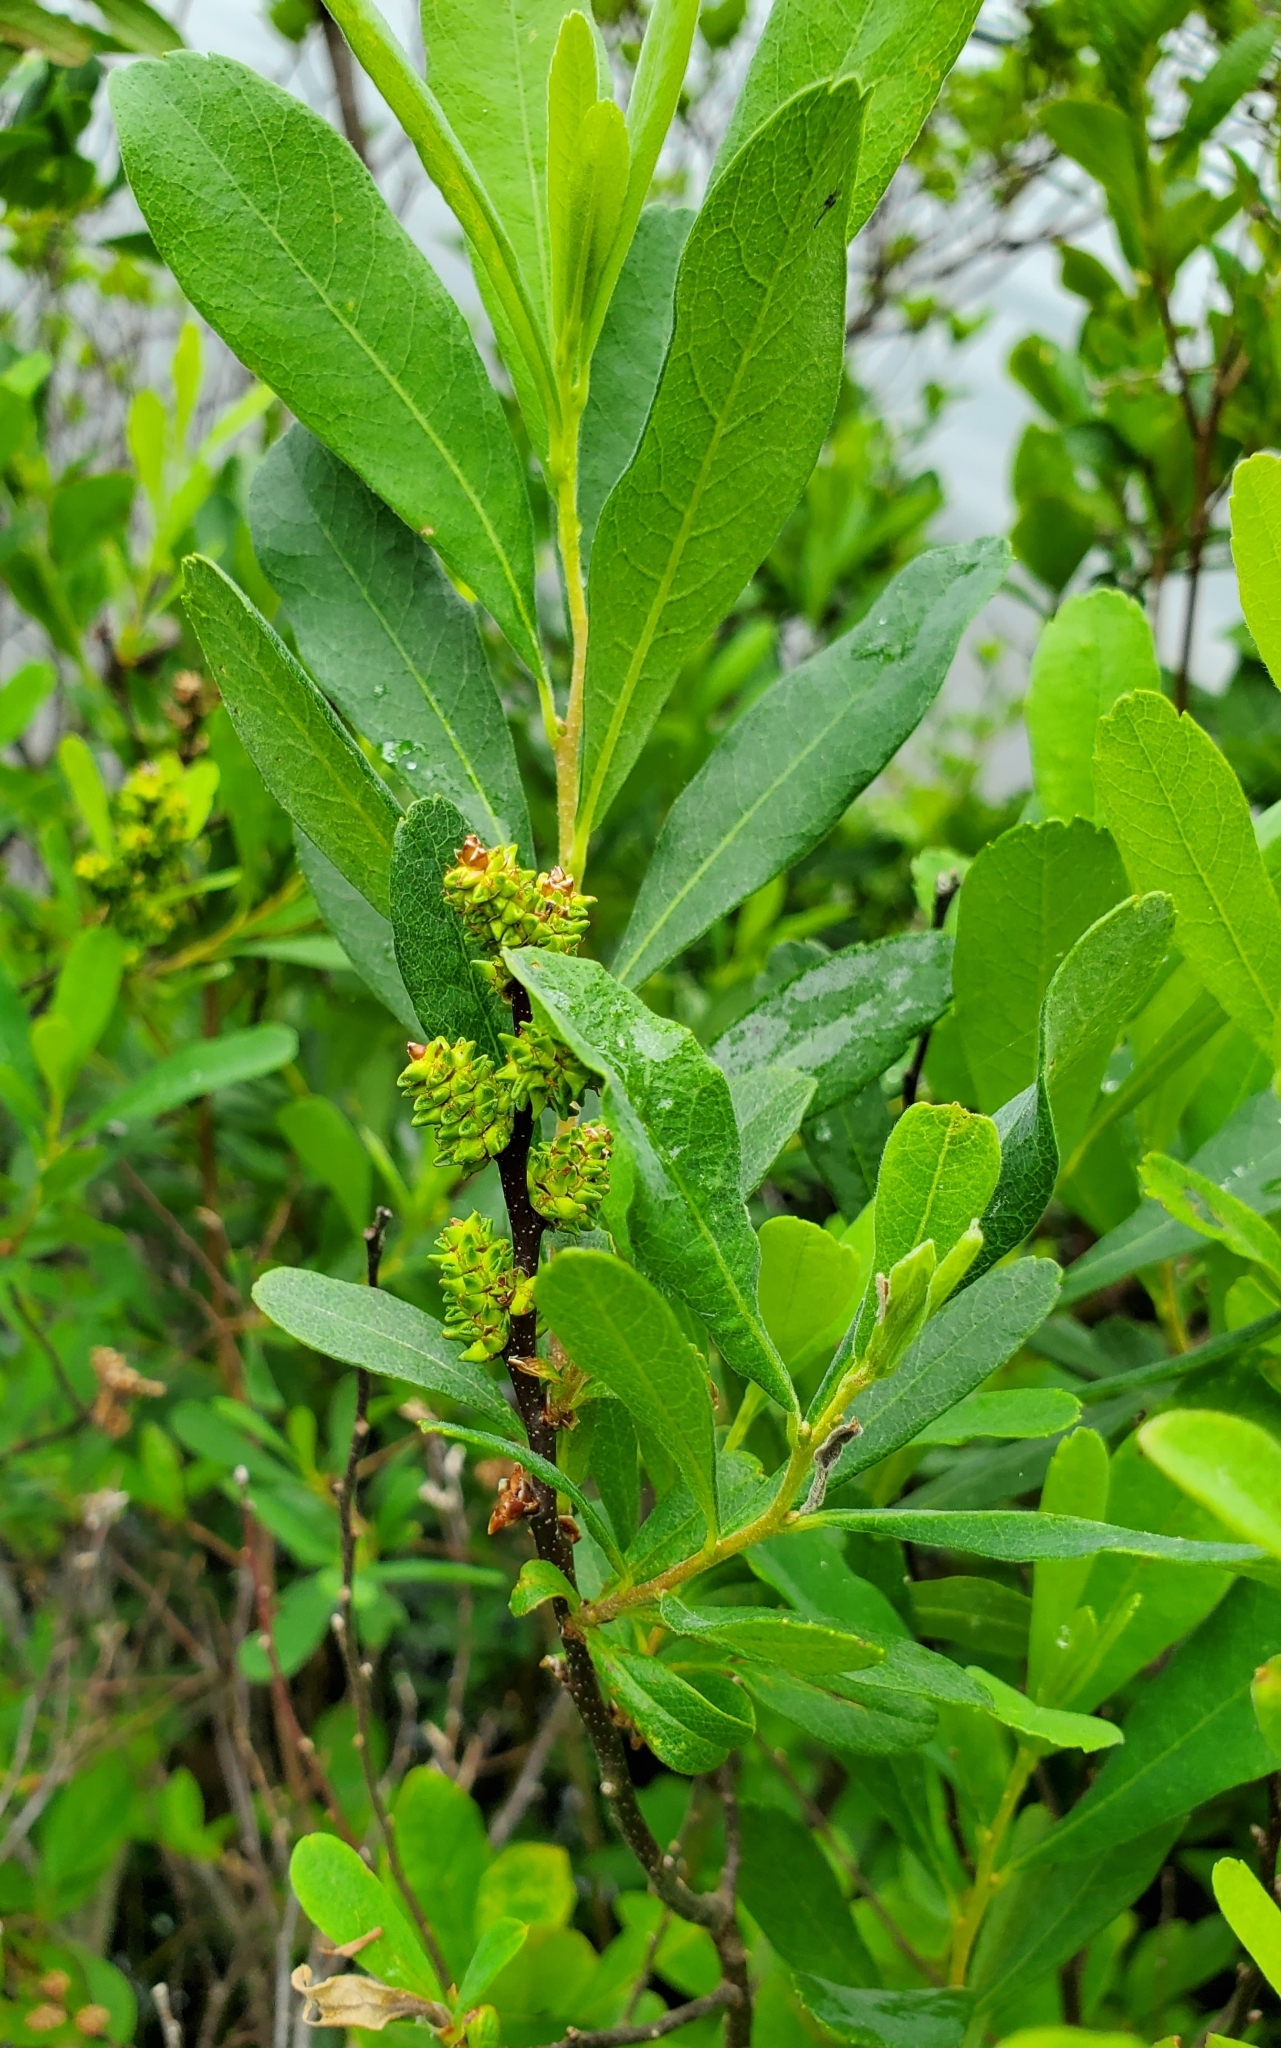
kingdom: Plantae
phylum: Tracheophyta
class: Magnoliopsida
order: Fagales
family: Myricaceae
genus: Myrica
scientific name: Myrica gale
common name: Sweet gale
